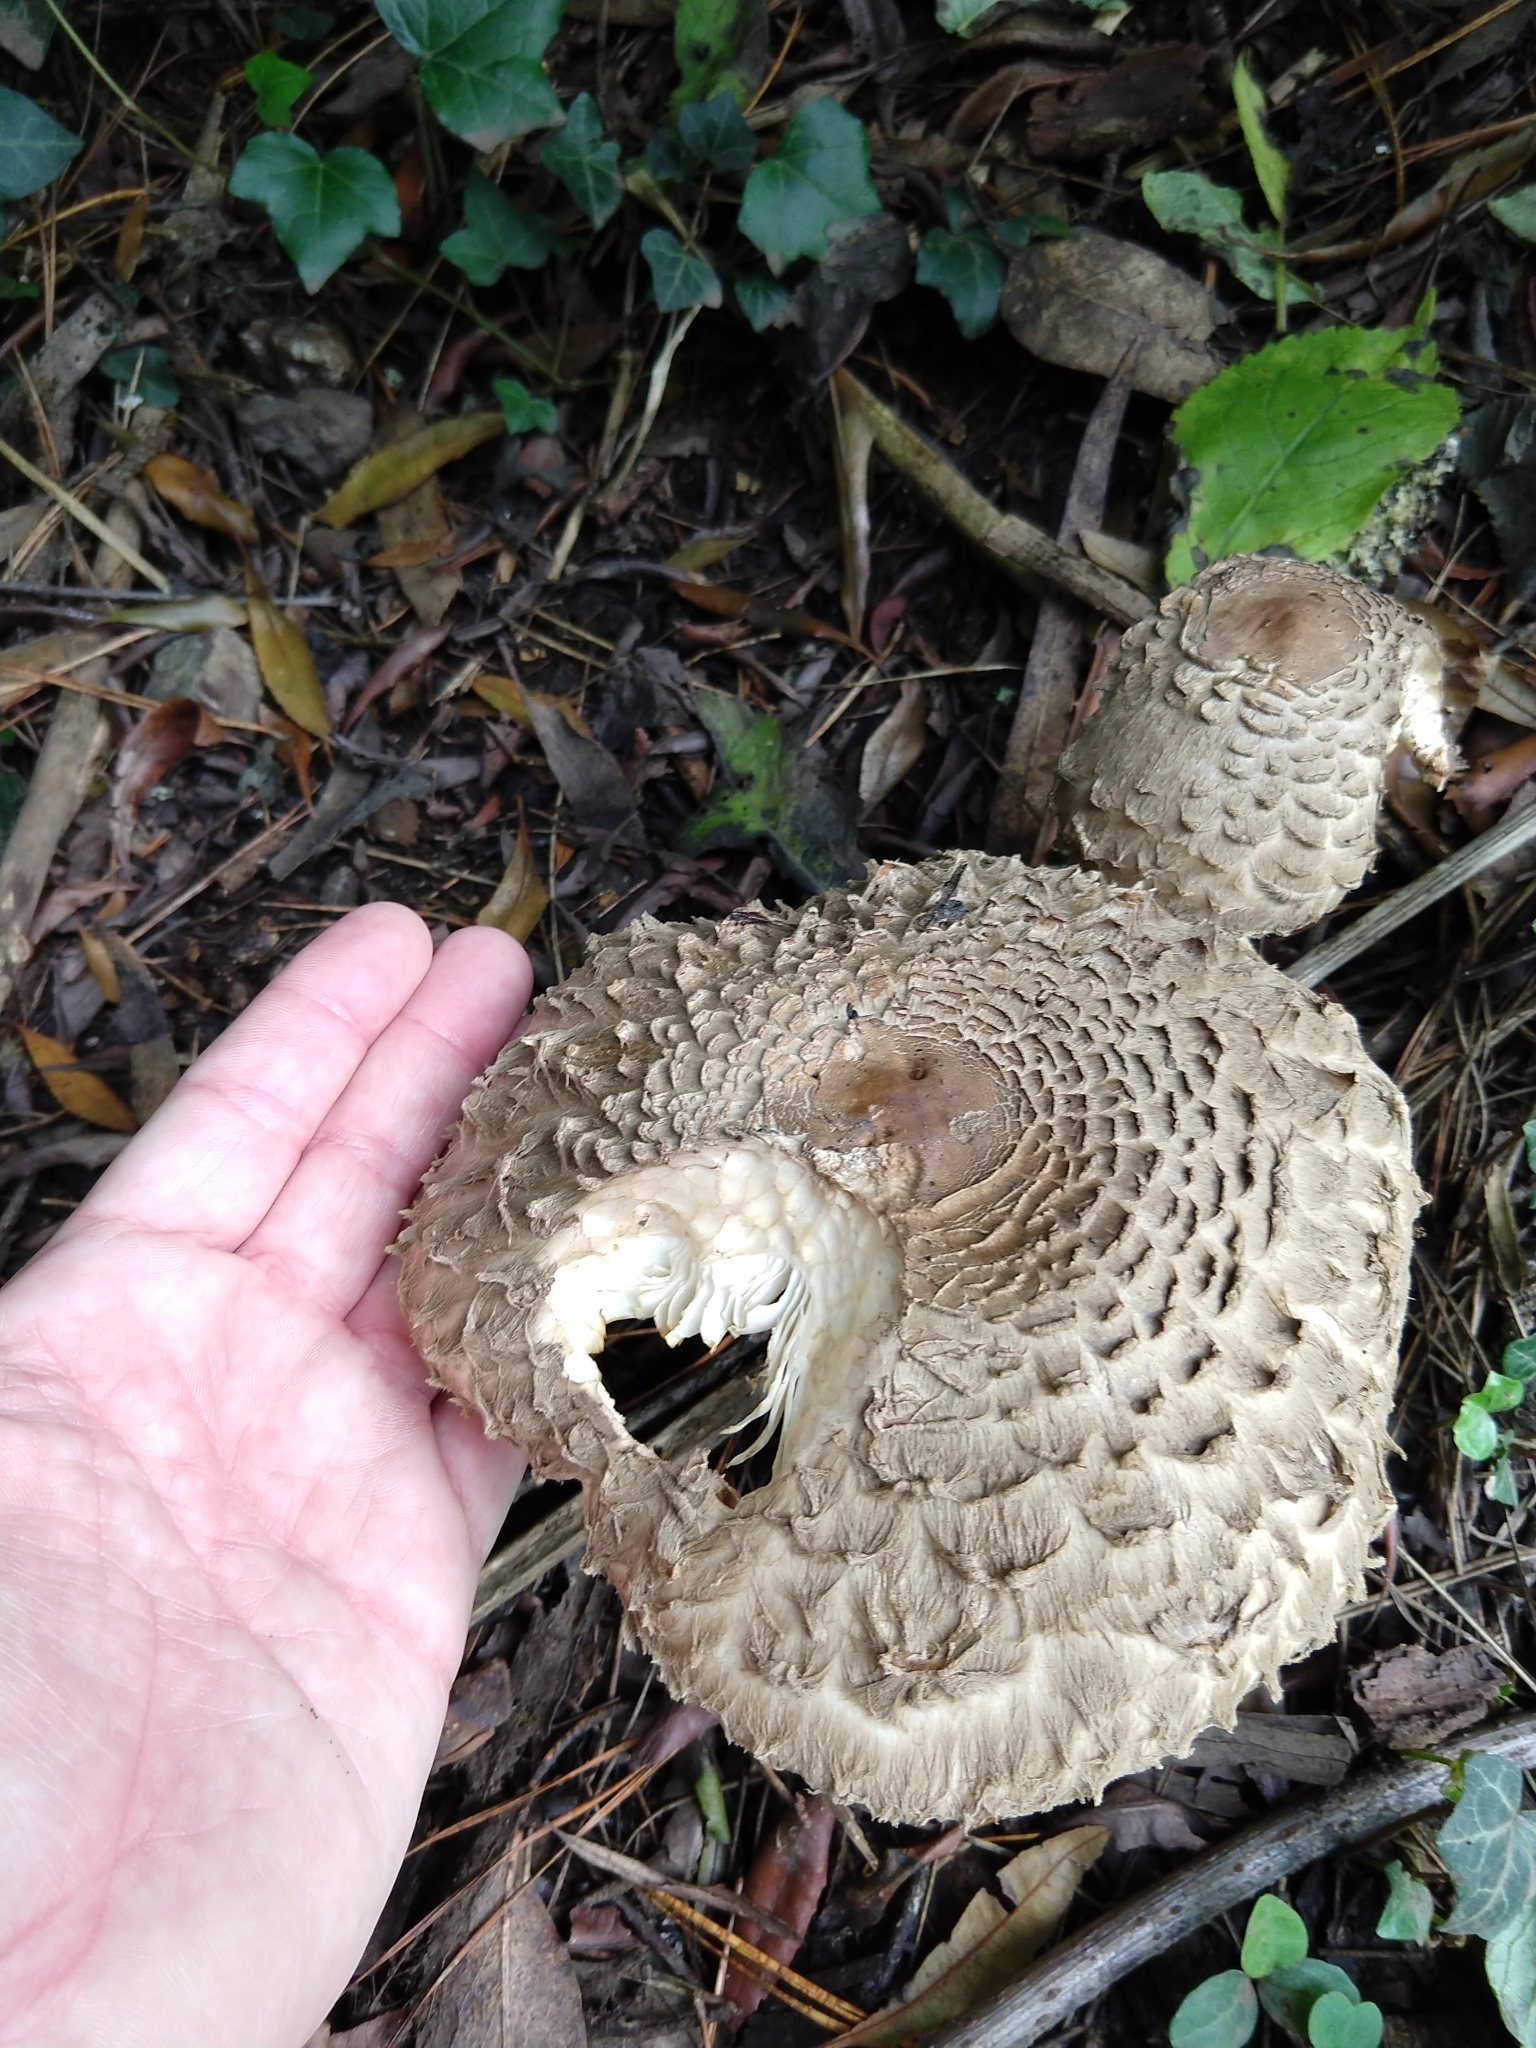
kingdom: Fungi
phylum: Basidiomycota
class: Agaricomycetes
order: Agaricales
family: Agaricaceae
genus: Chlorophyllum
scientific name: Chlorophyllum olivieri
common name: Conifer parasol
